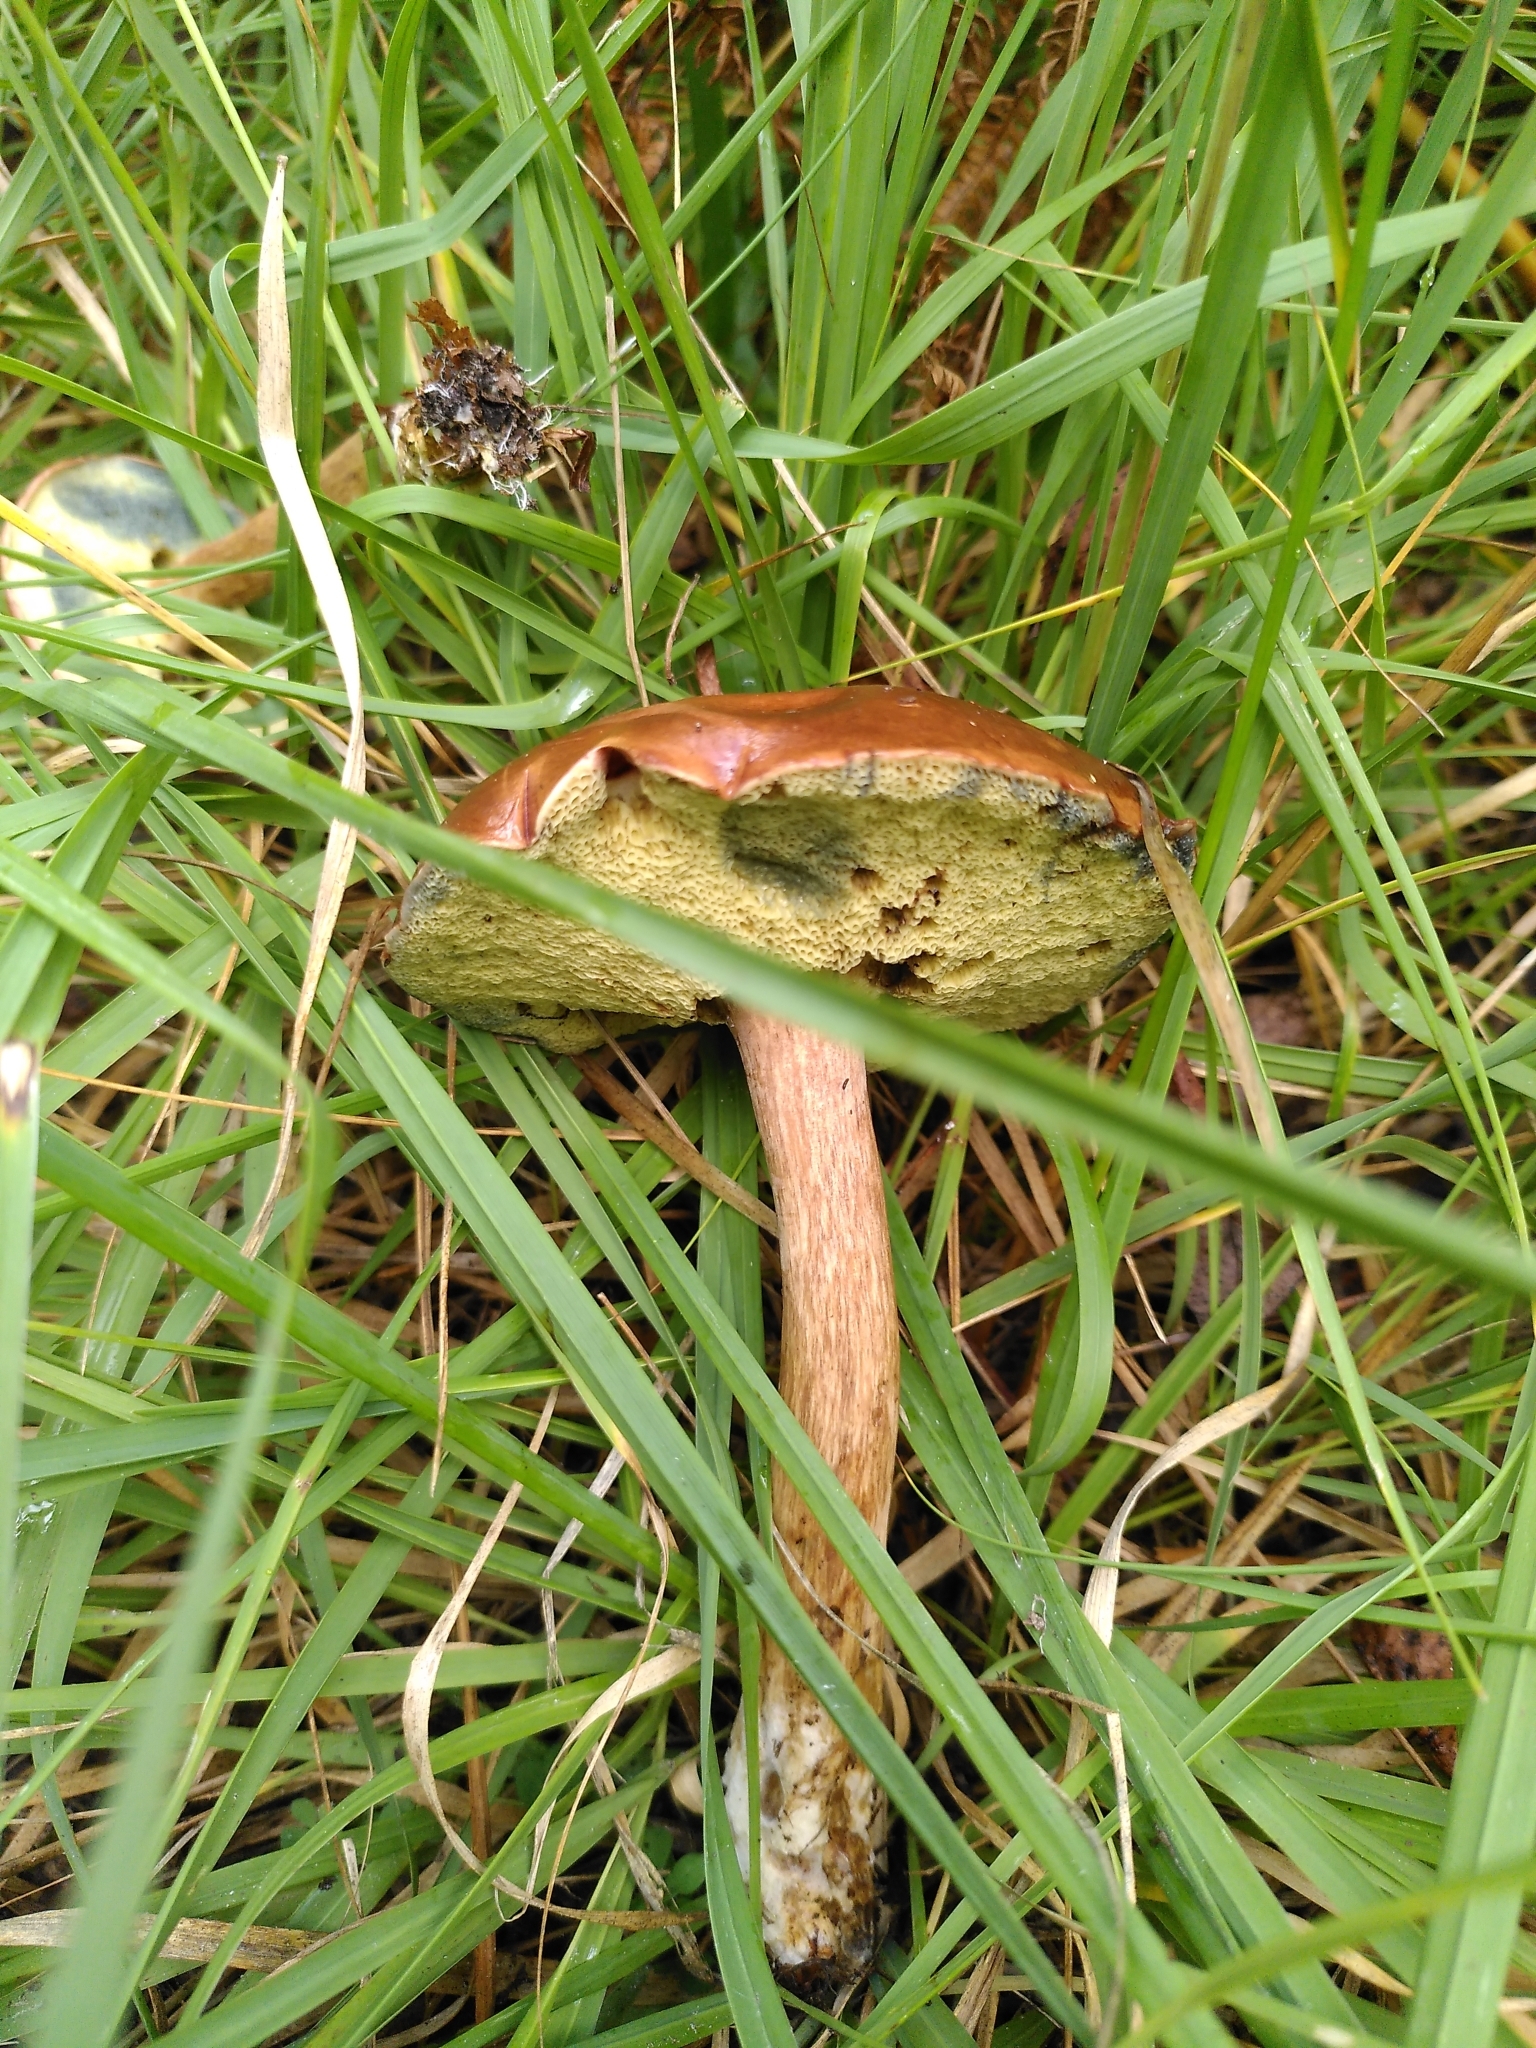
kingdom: Fungi
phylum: Basidiomycota
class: Agaricomycetes
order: Boletales
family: Boletaceae
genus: Imleria
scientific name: Imleria badia
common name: Bay bolete
